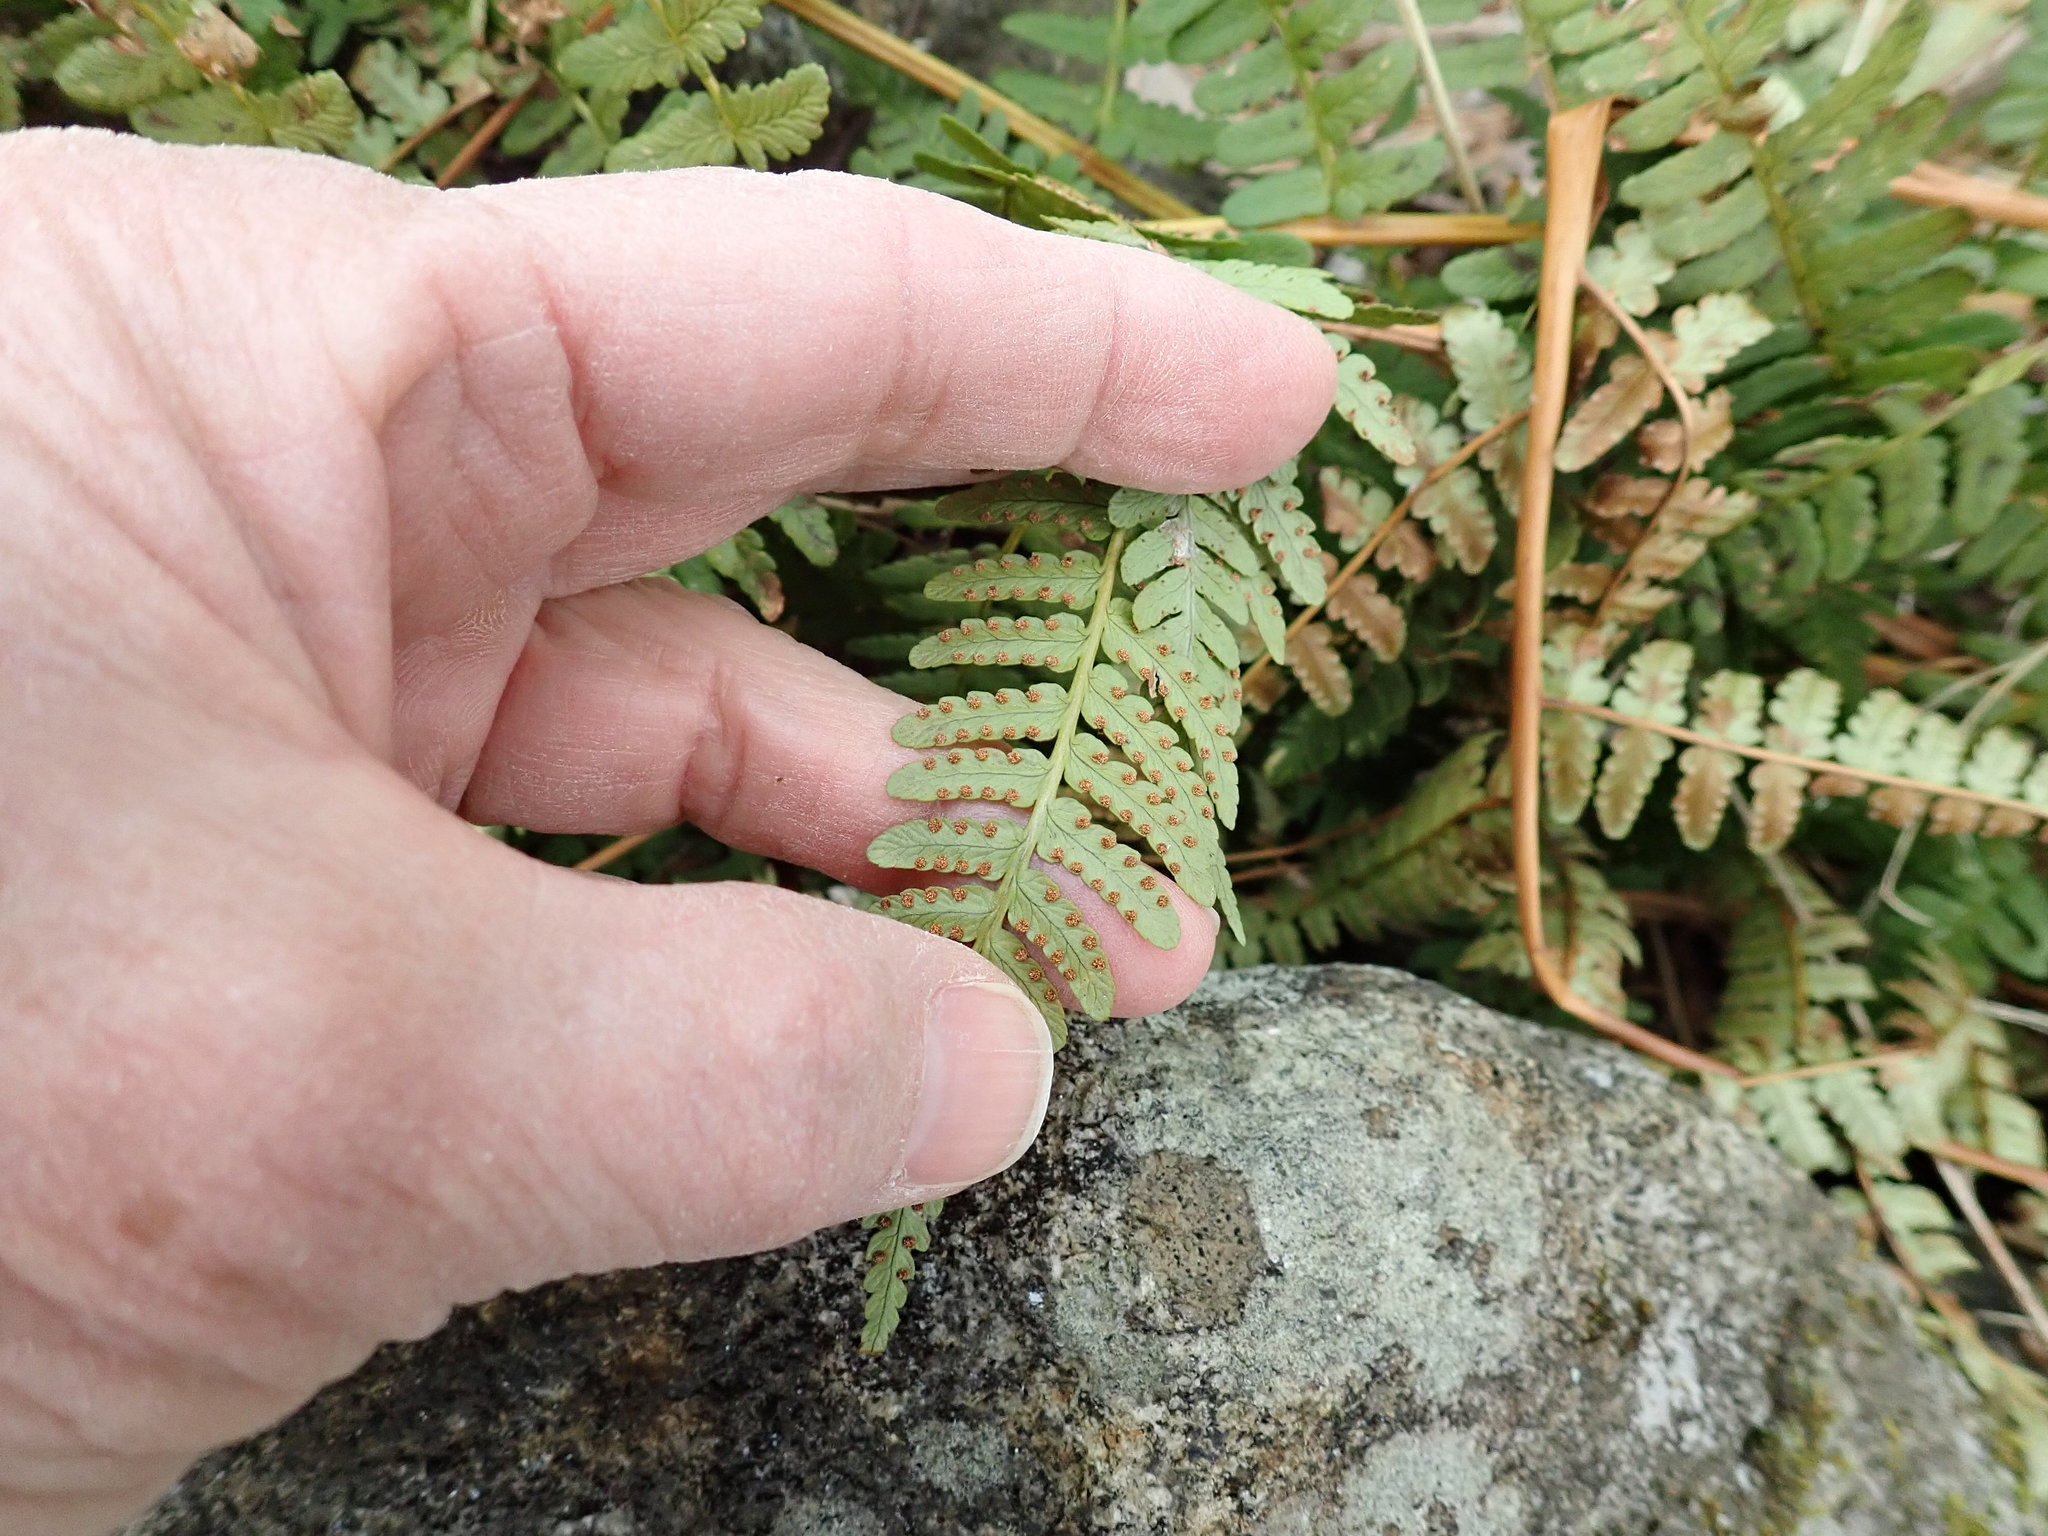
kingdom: Plantae
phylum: Tracheophyta
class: Polypodiopsida
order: Polypodiales
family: Dryopteridaceae
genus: Dryopteris
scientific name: Dryopteris marginalis
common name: Marginal wood fern
